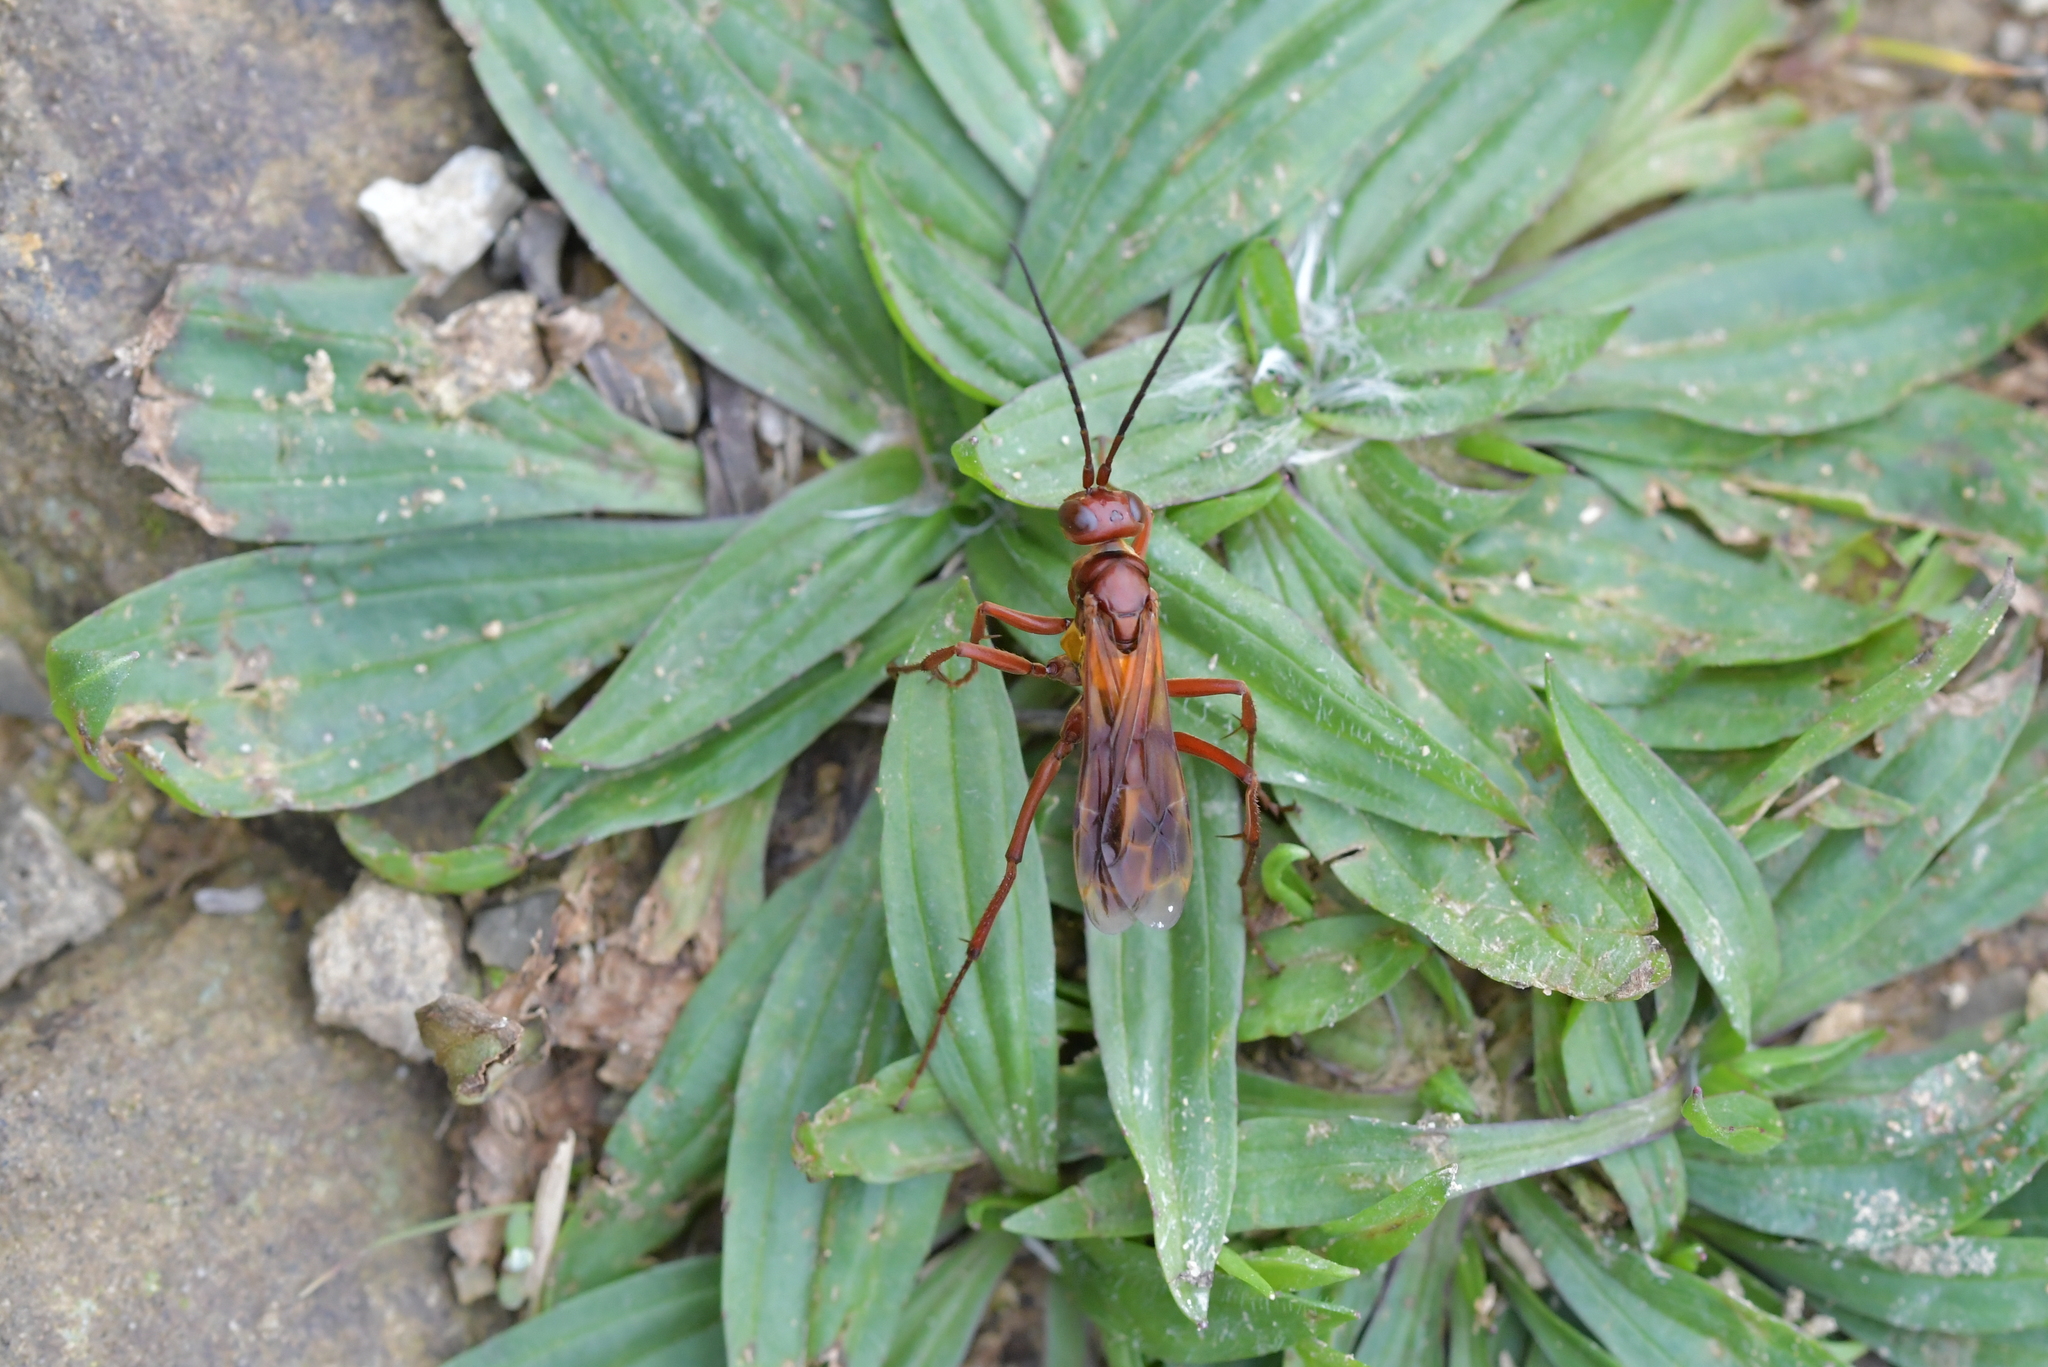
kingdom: Animalia
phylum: Arthropoda
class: Insecta
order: Hymenoptera
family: Pompilidae
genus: Sphictostethus
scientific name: Sphictostethus nitidus
